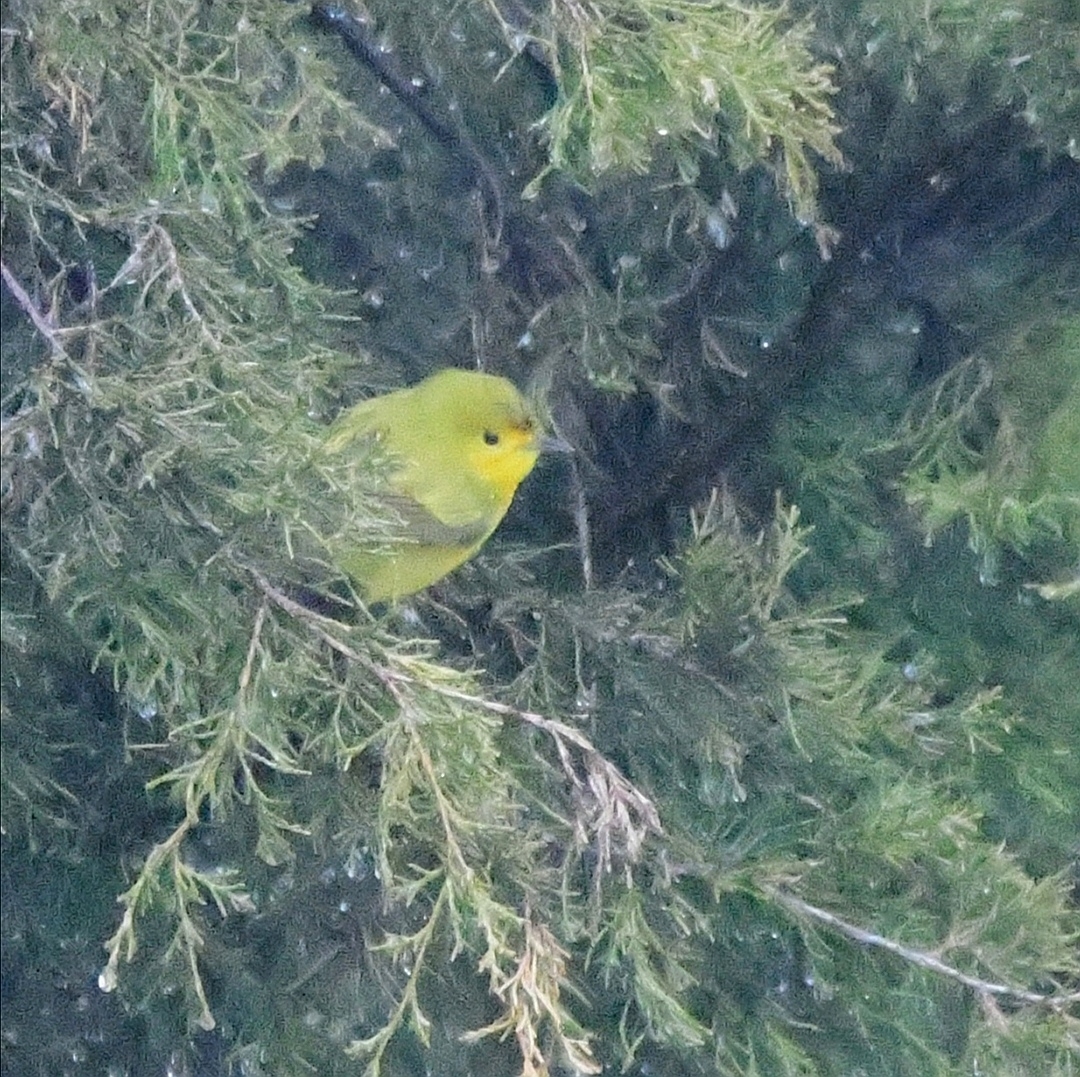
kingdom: Animalia
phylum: Chordata
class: Aves
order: Passeriformes
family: Parulidae
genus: Setophaga
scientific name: Setophaga petechia
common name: Yellow warbler
